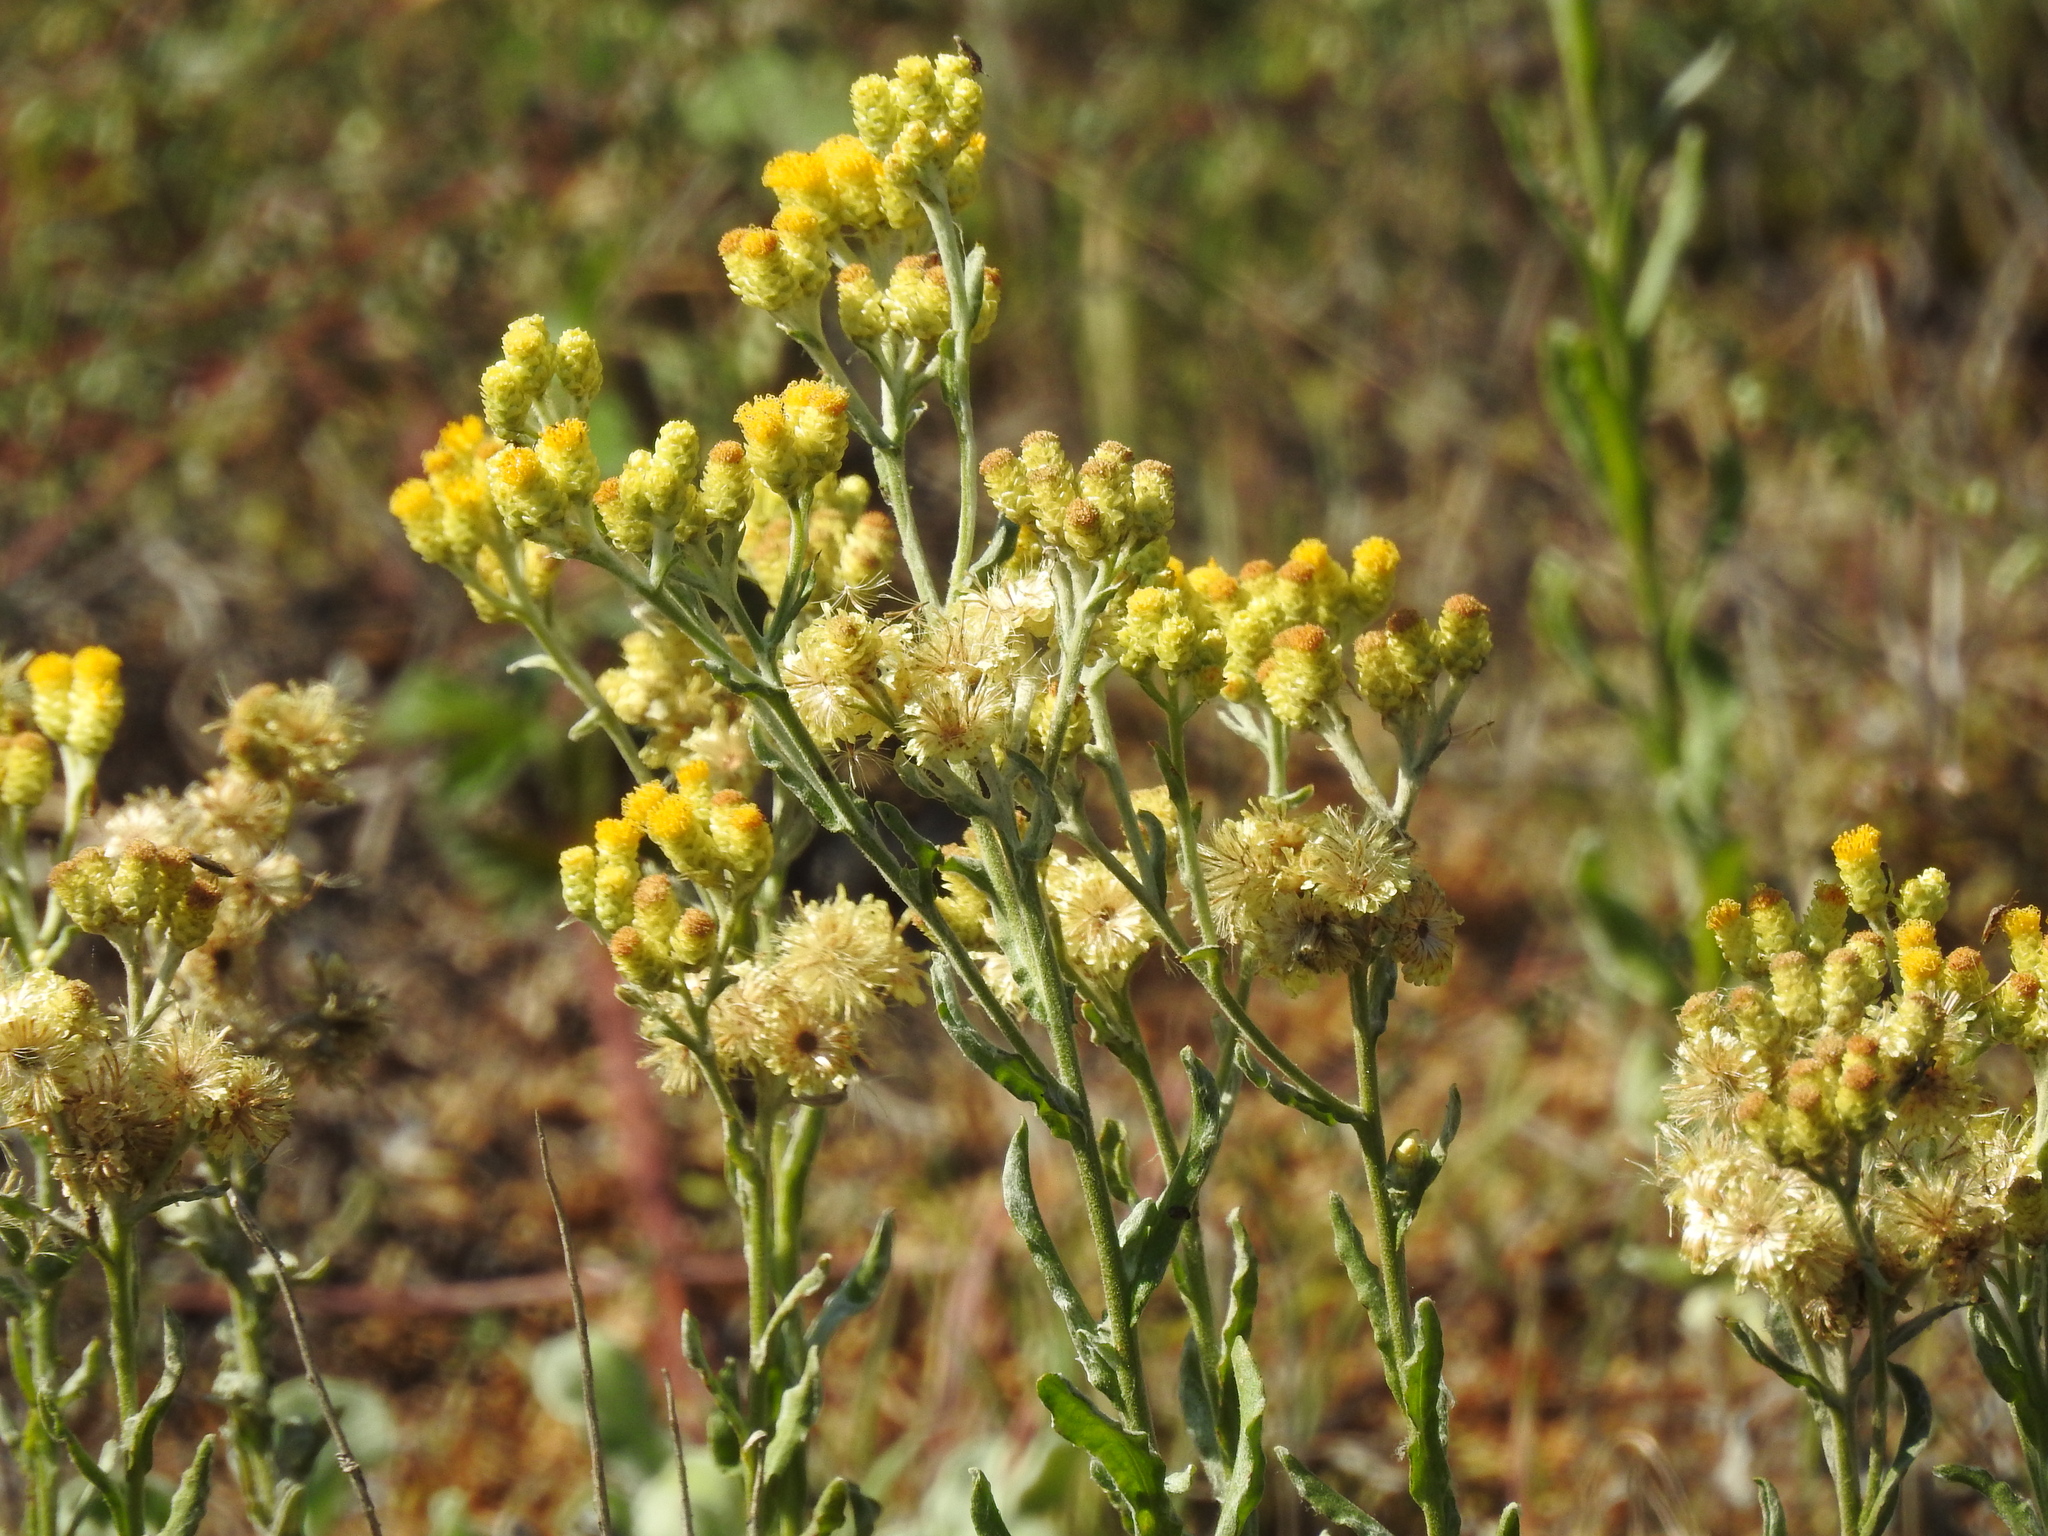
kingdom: Plantae
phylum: Tracheophyta
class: Magnoliopsida
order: Asterales
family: Asteraceae
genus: Helichrysum
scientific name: Helichrysum arenarium
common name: Strawflower
